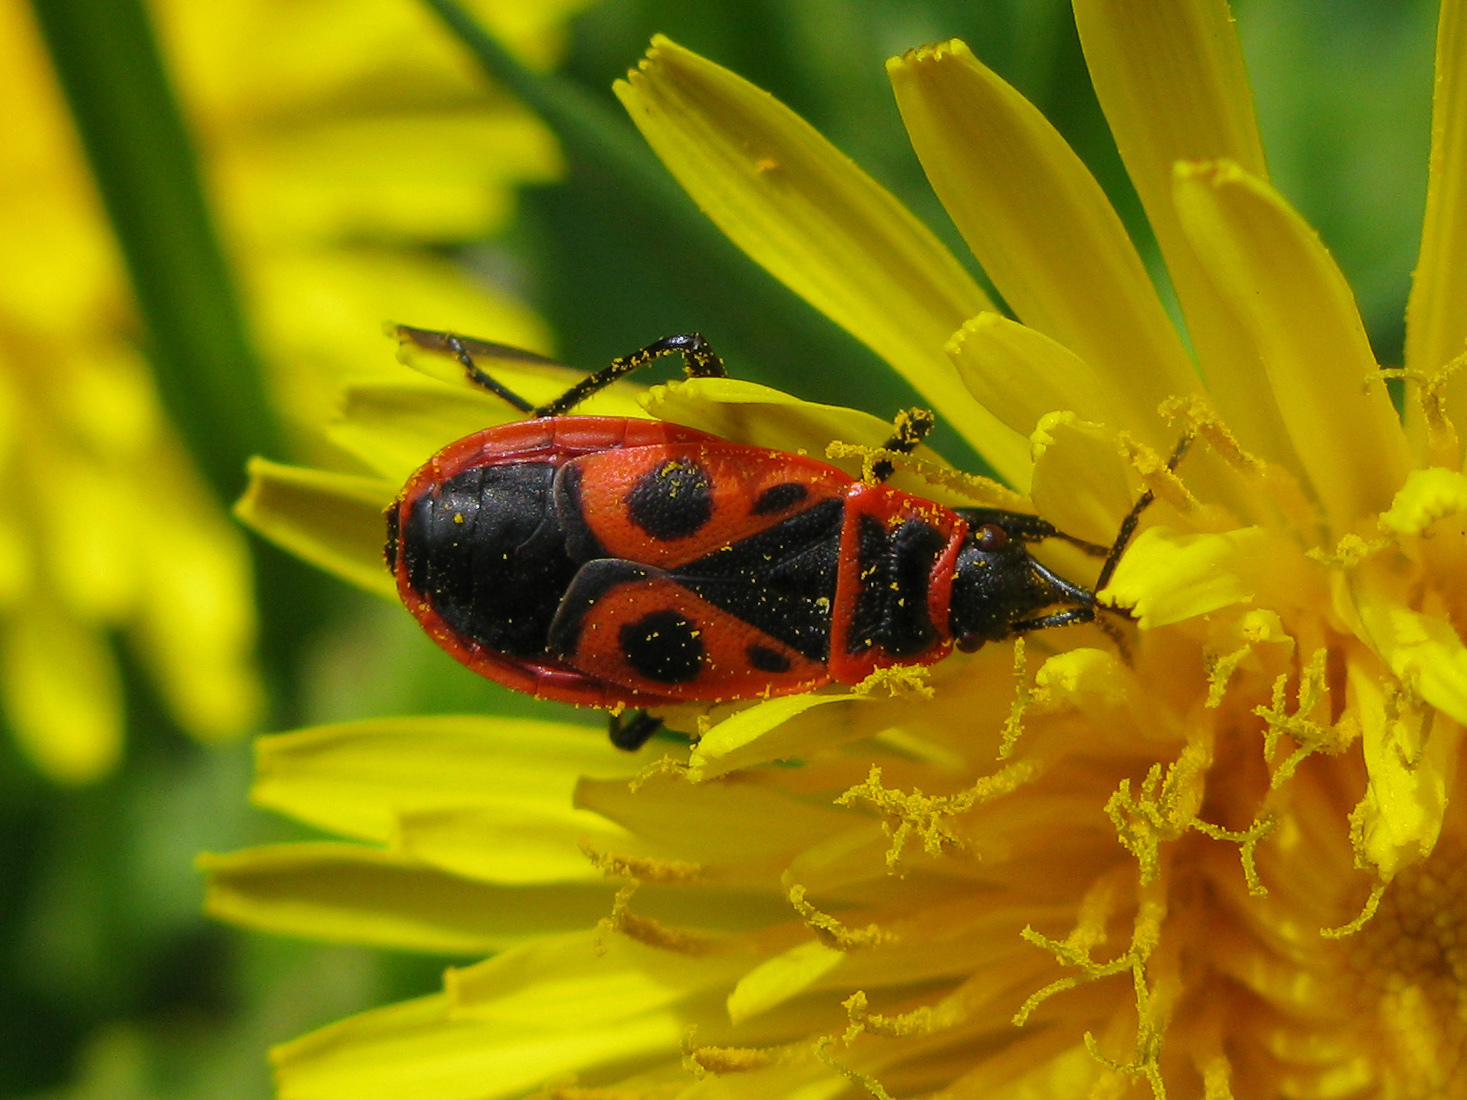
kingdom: Animalia
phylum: Arthropoda
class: Insecta
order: Hemiptera
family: Pyrrhocoridae
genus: Pyrrhocoris
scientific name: Pyrrhocoris apterus
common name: Firebug
